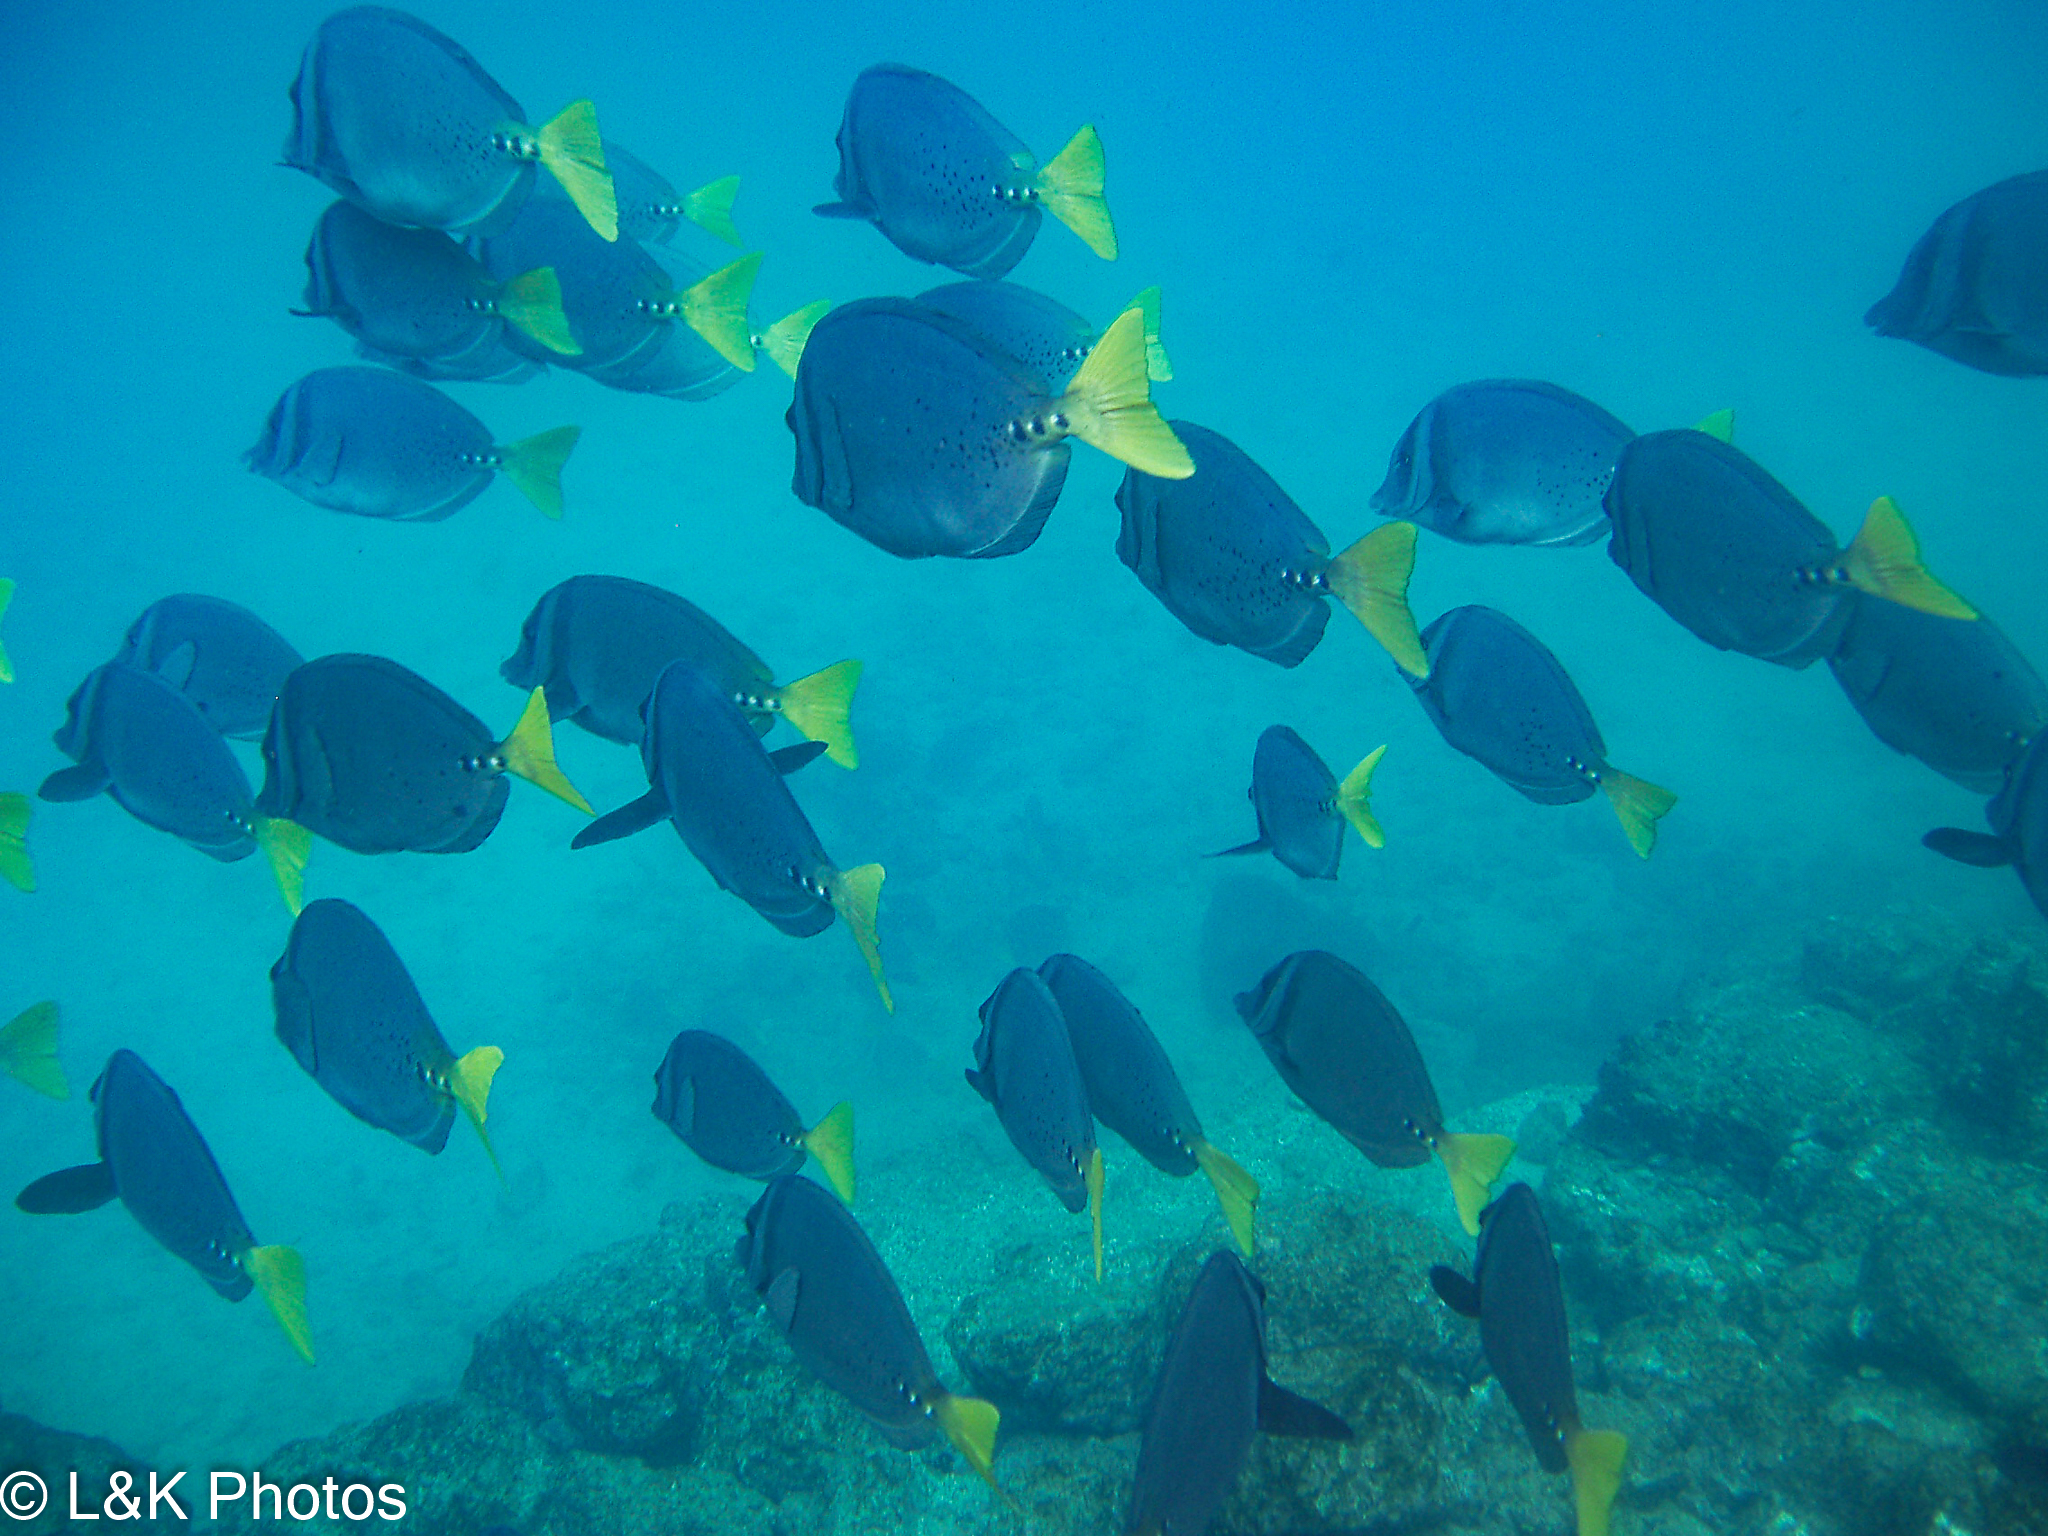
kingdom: Animalia
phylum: Chordata
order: Perciformes
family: Acanthuridae
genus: Prionurus
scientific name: Prionurus laticlavius
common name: Razor surgeonfish
